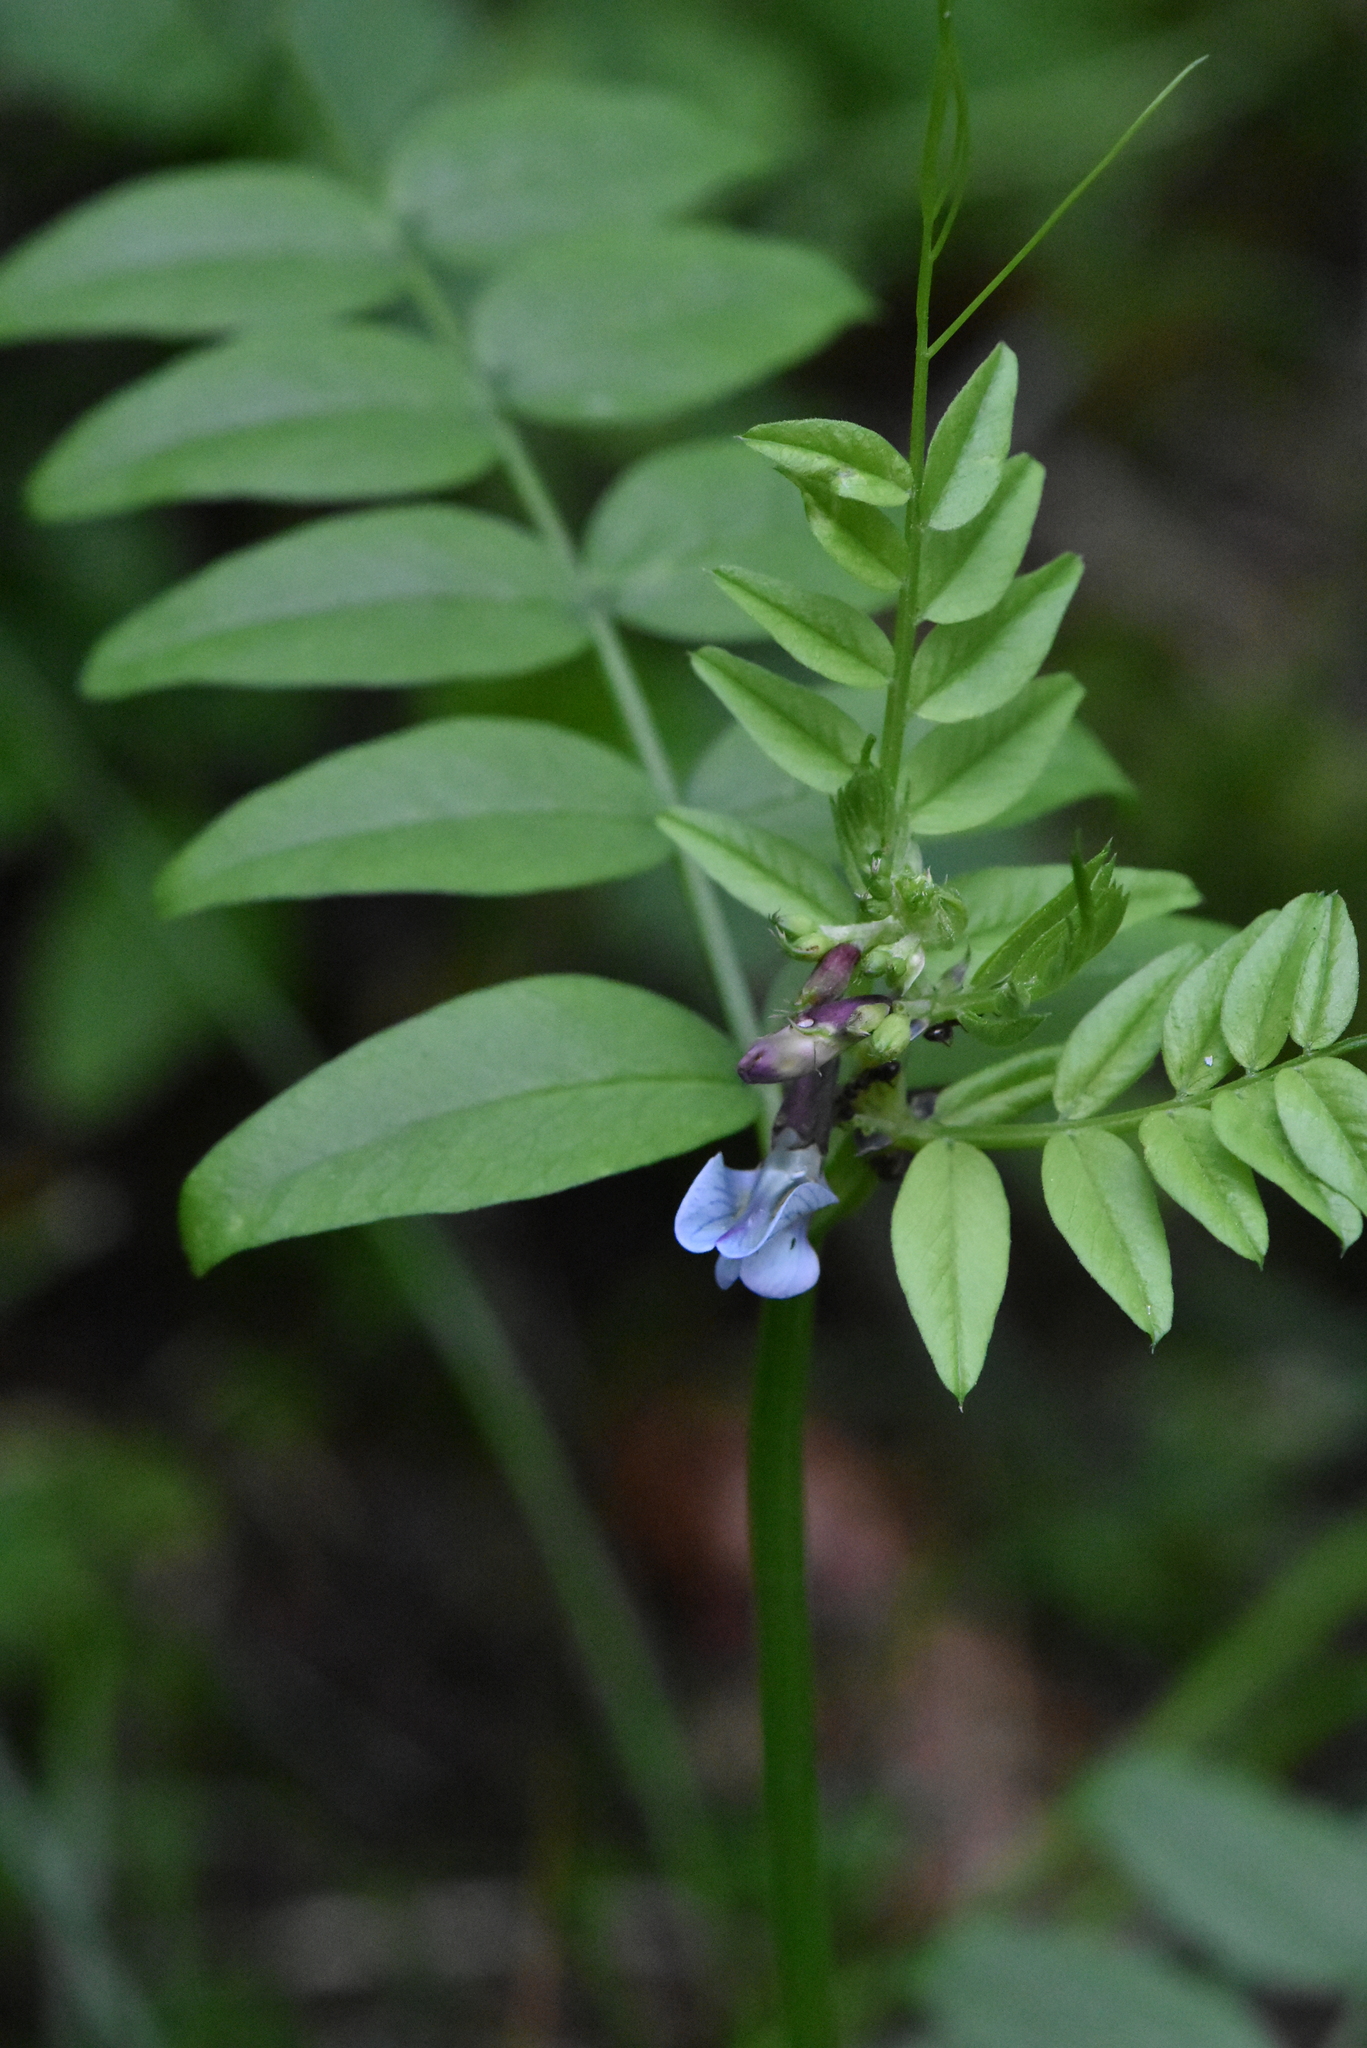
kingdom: Plantae
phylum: Tracheophyta
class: Magnoliopsida
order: Fabales
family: Fabaceae
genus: Vicia
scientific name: Vicia sepium
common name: Bush vetch
